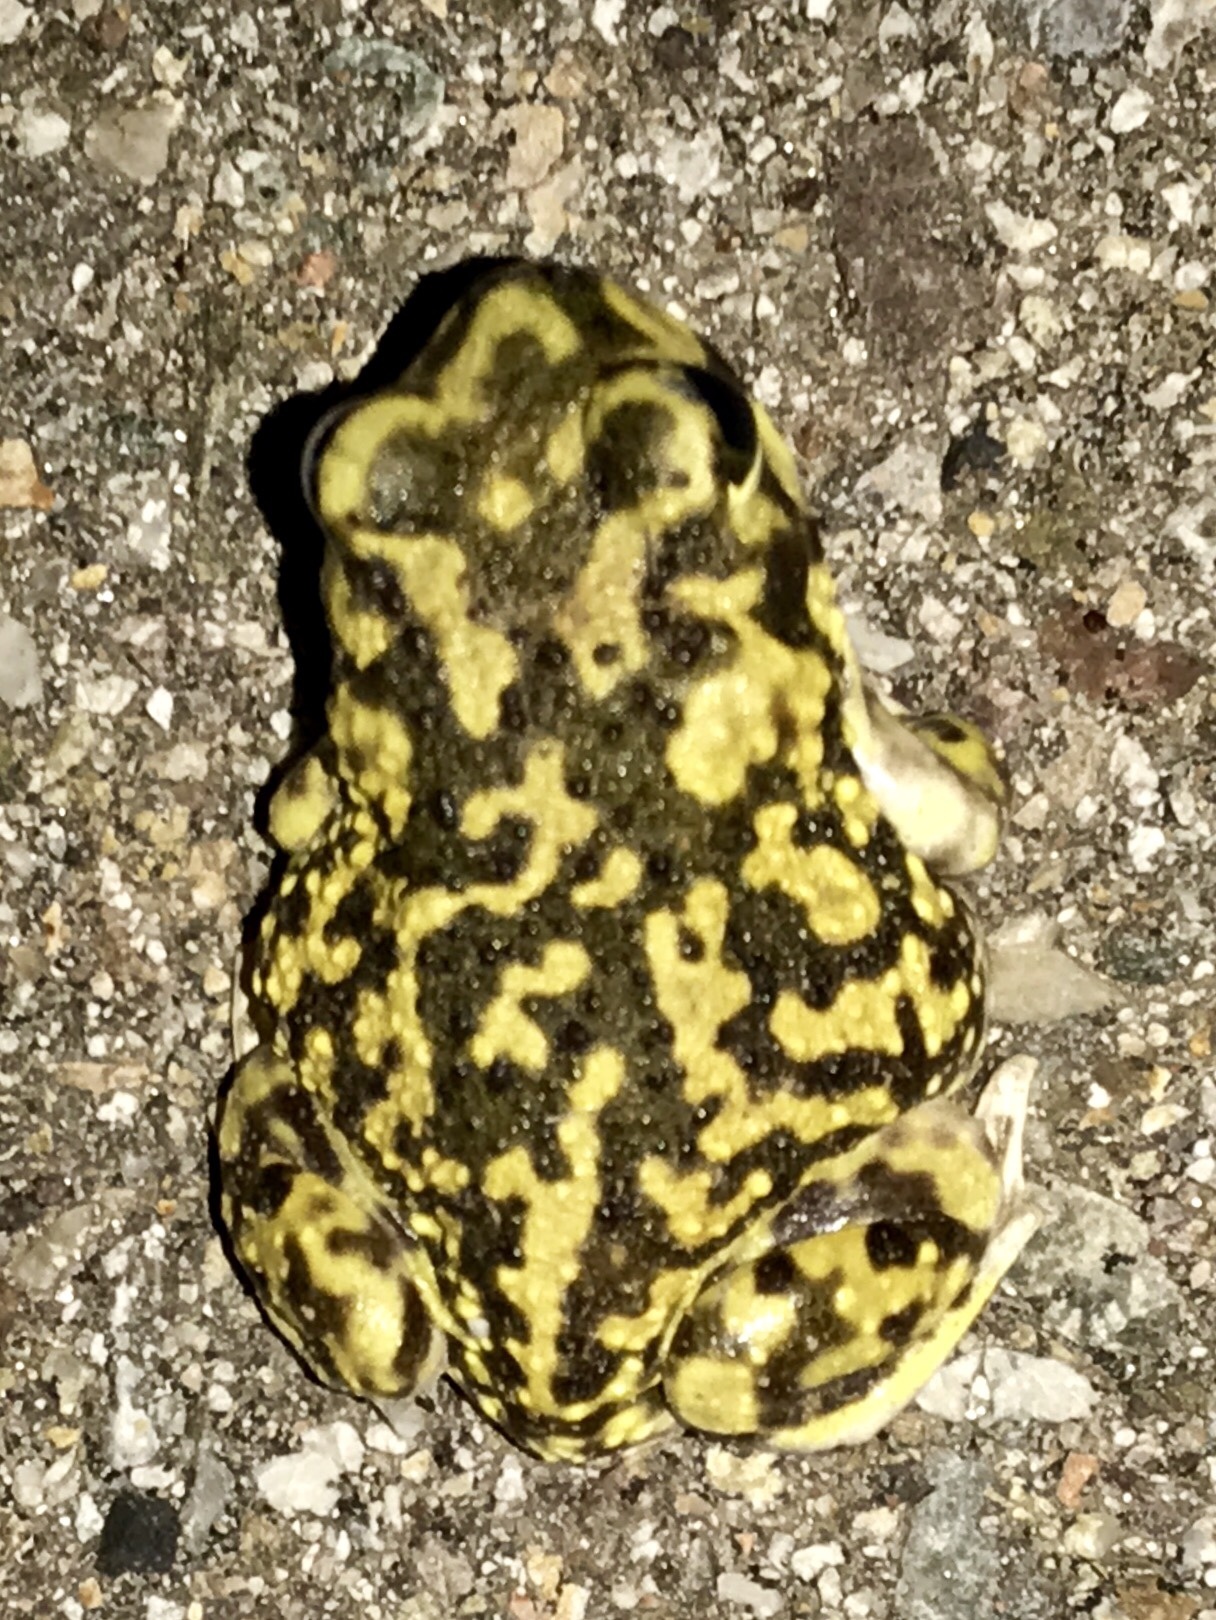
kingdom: Animalia
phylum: Chordata
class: Amphibia
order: Anura
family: Scaphiopodidae
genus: Scaphiopus
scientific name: Scaphiopus couchii
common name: Couch's spadefoot toad
